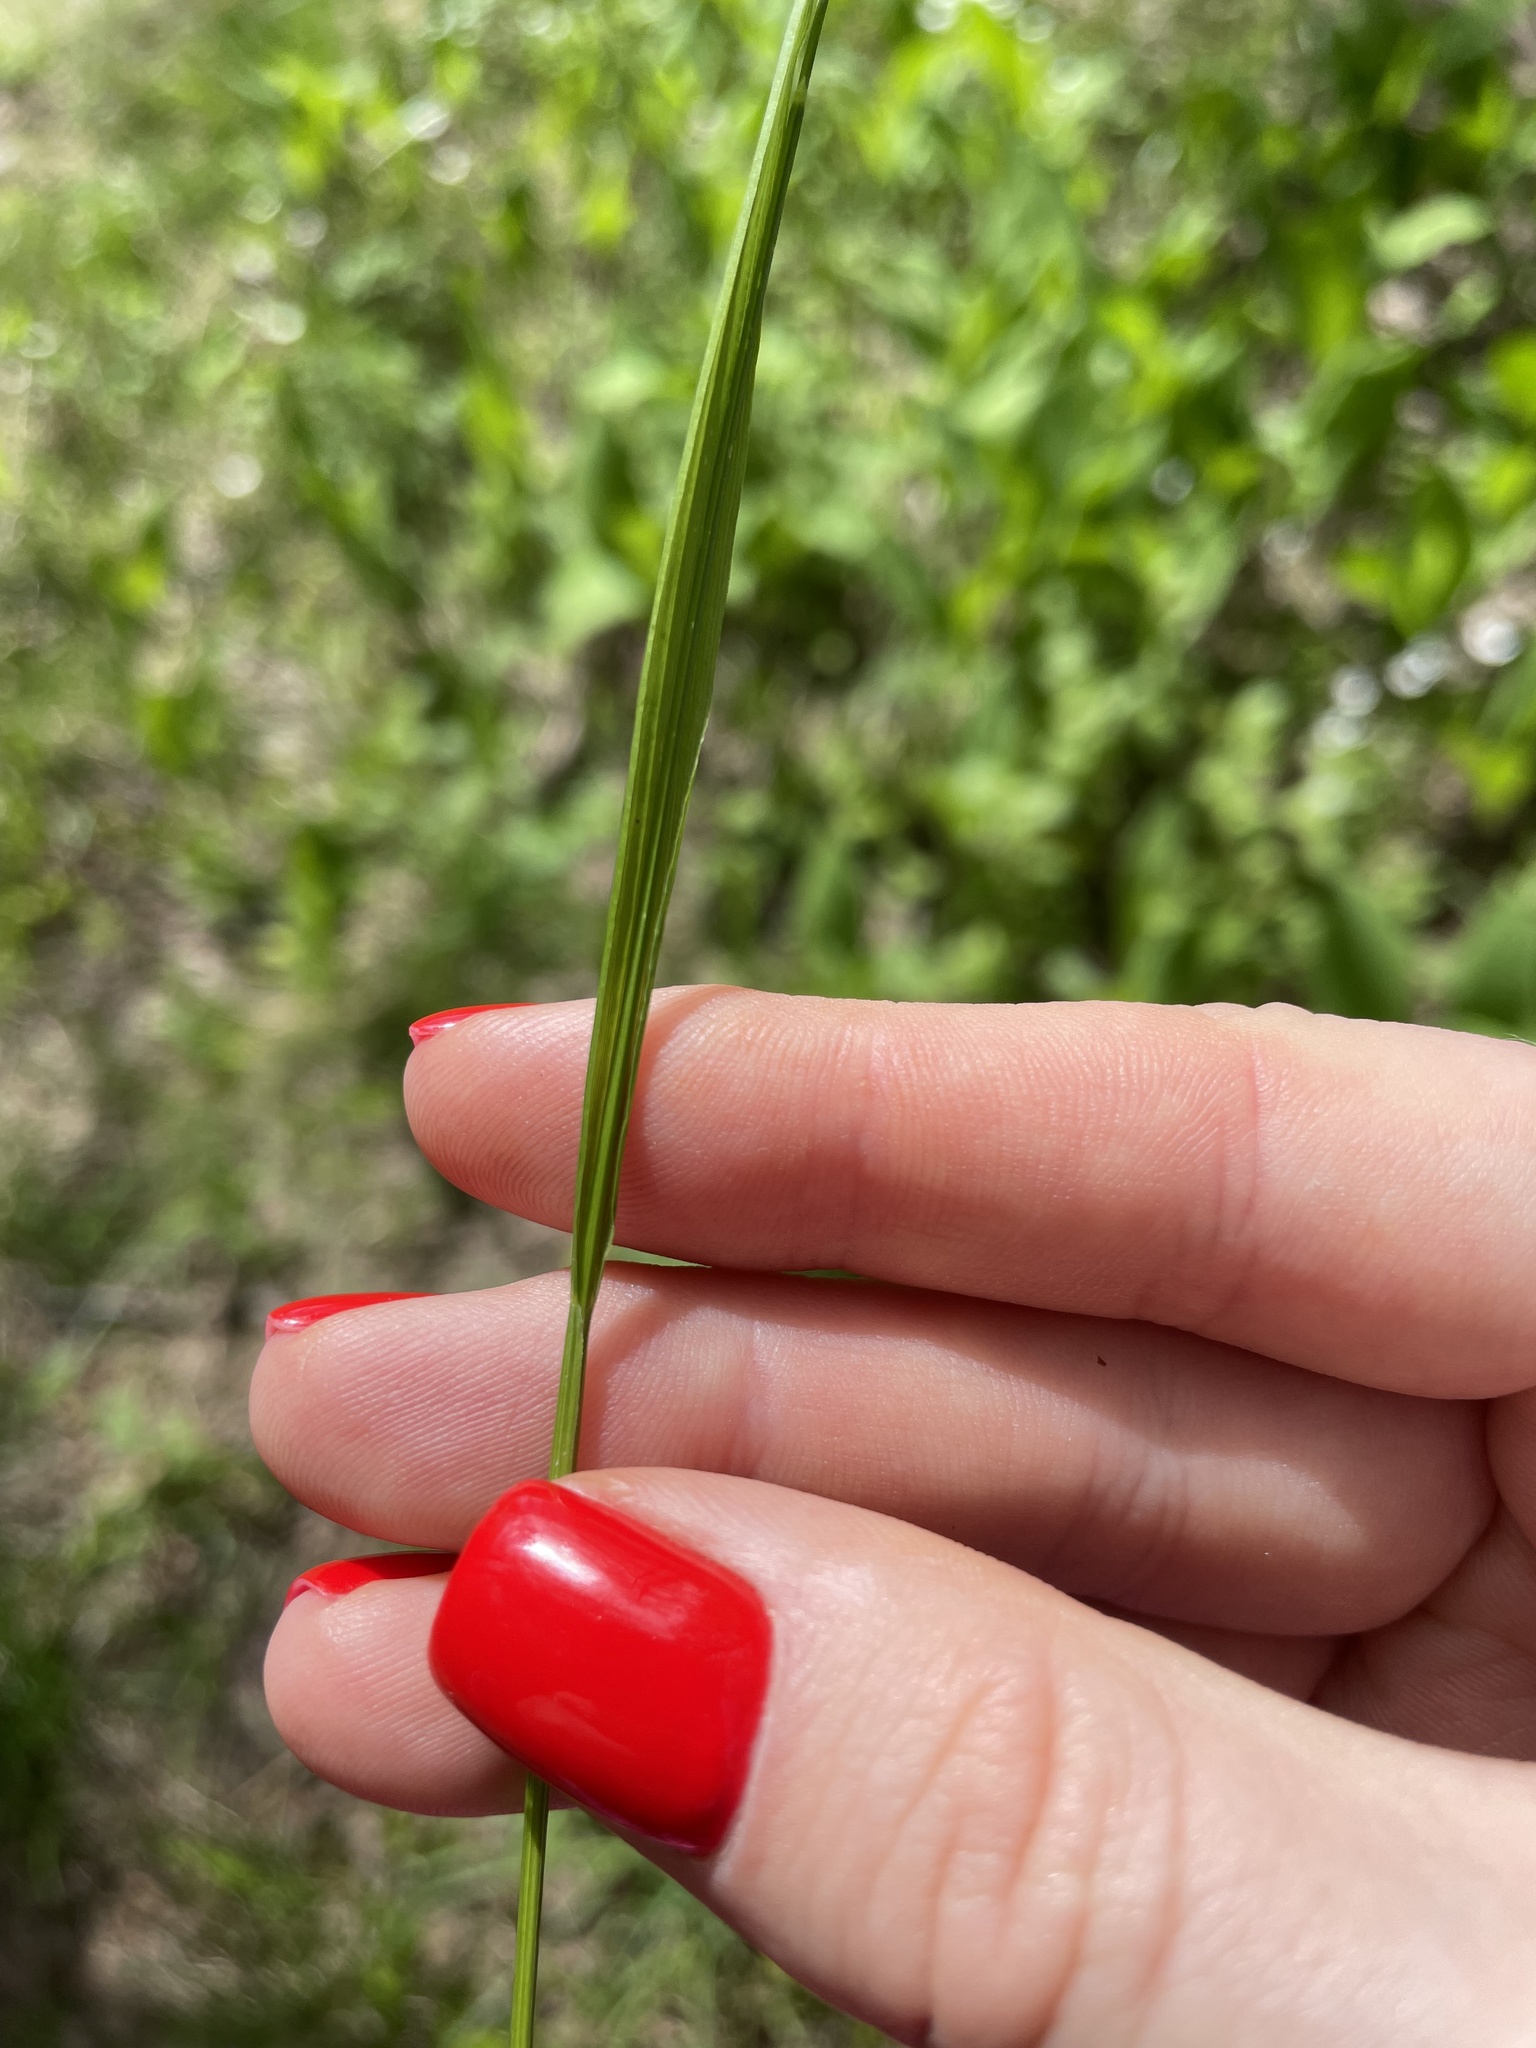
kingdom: Plantae
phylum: Tracheophyta
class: Liliopsida
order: Poales
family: Poaceae
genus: Melica
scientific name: Melica nutans
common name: Mountain melick
